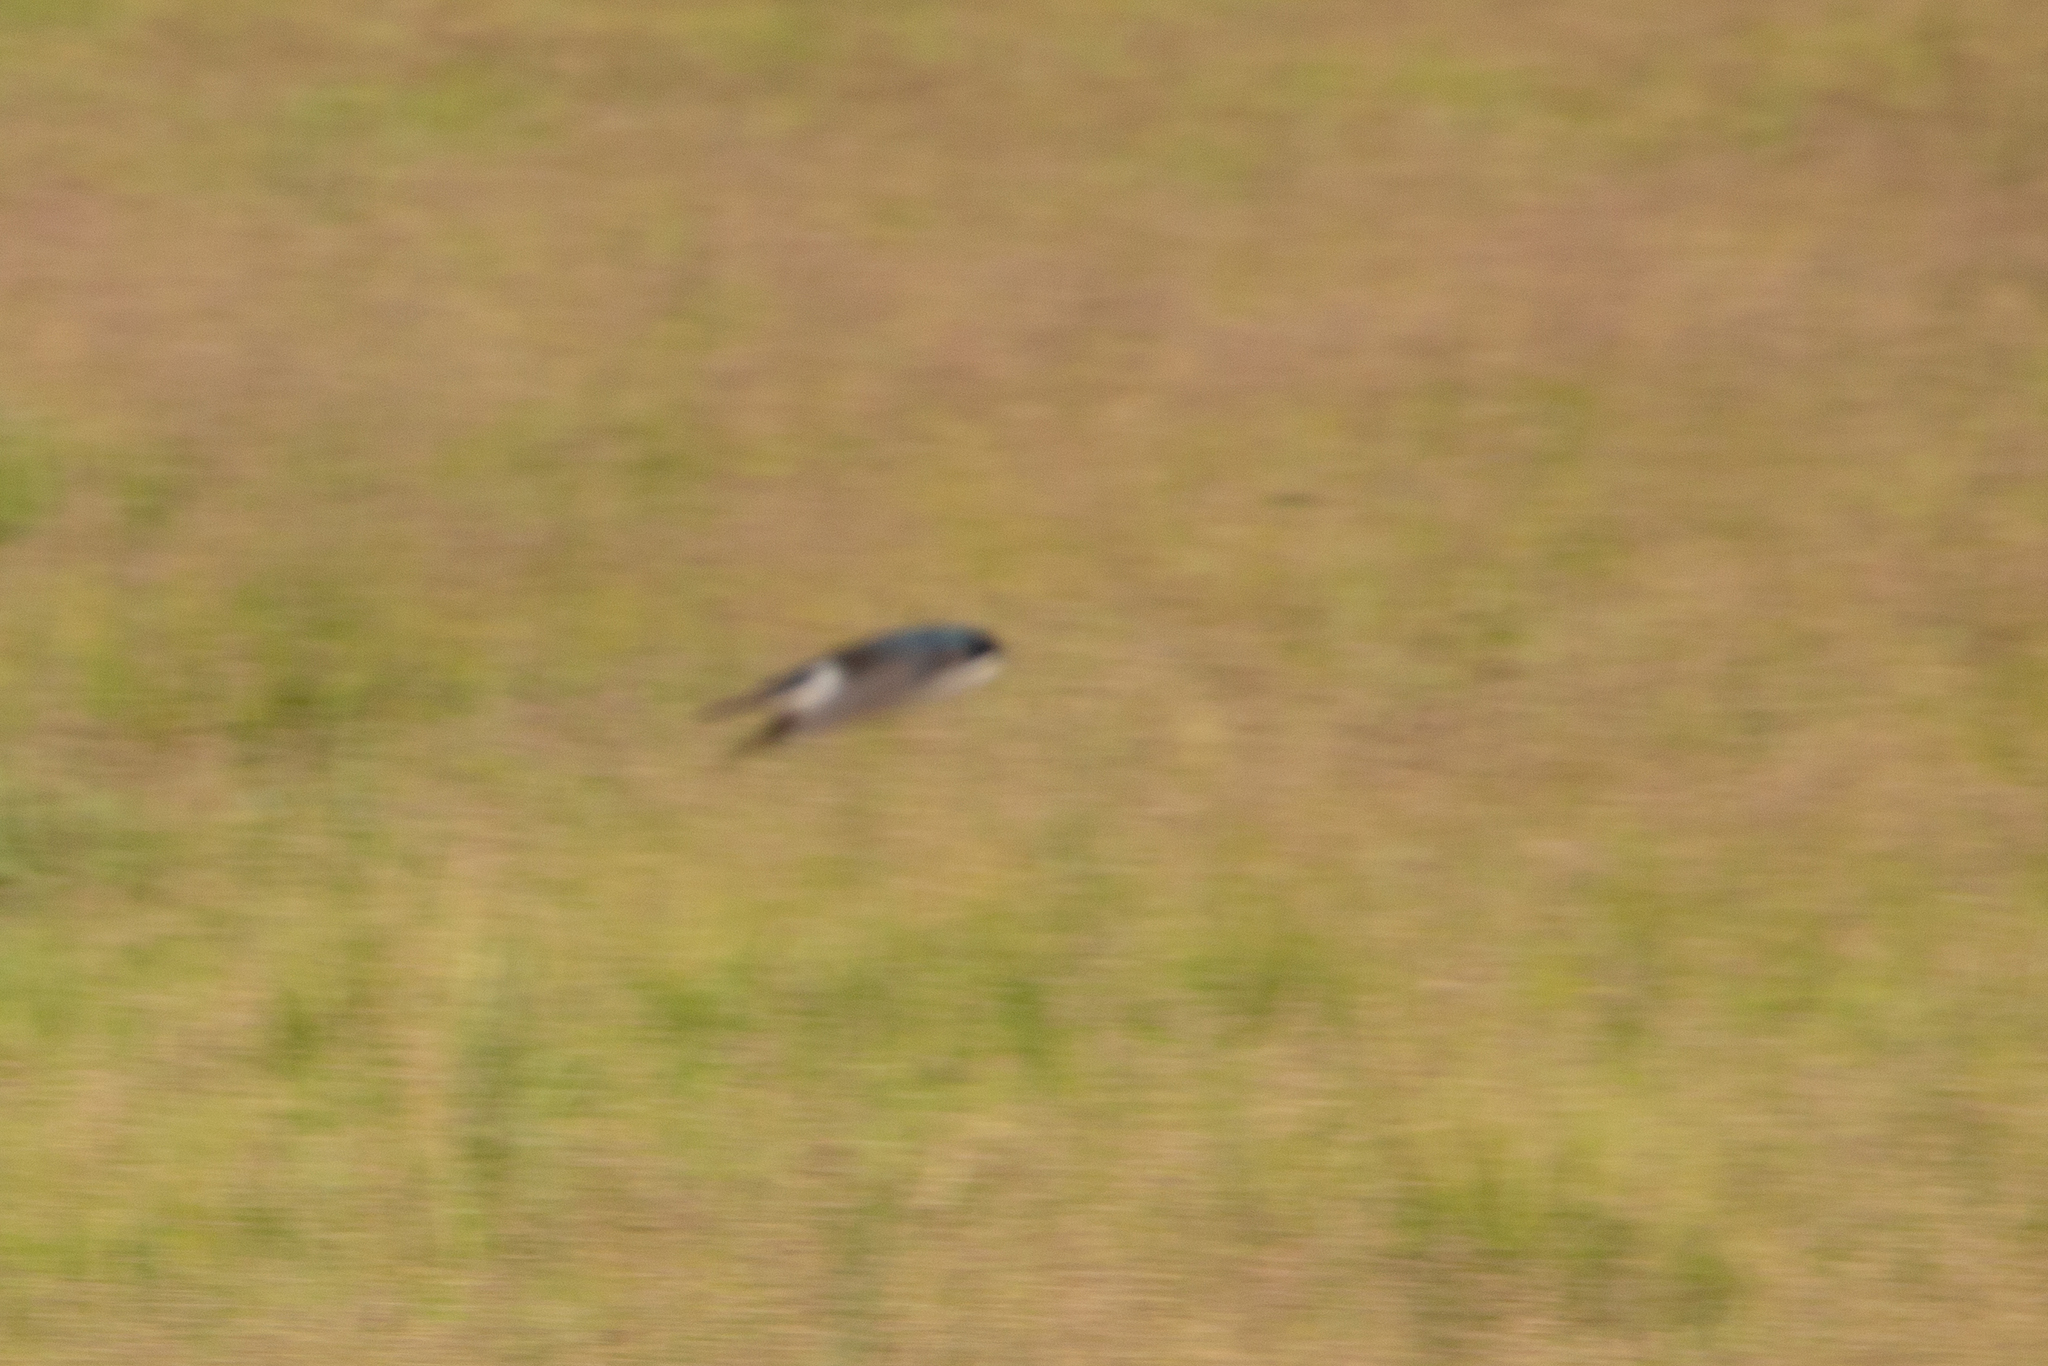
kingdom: Animalia
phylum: Chordata
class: Aves
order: Passeriformes
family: Hirundinidae
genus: Tachycineta
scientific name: Tachycineta bicolor
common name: Tree swallow
